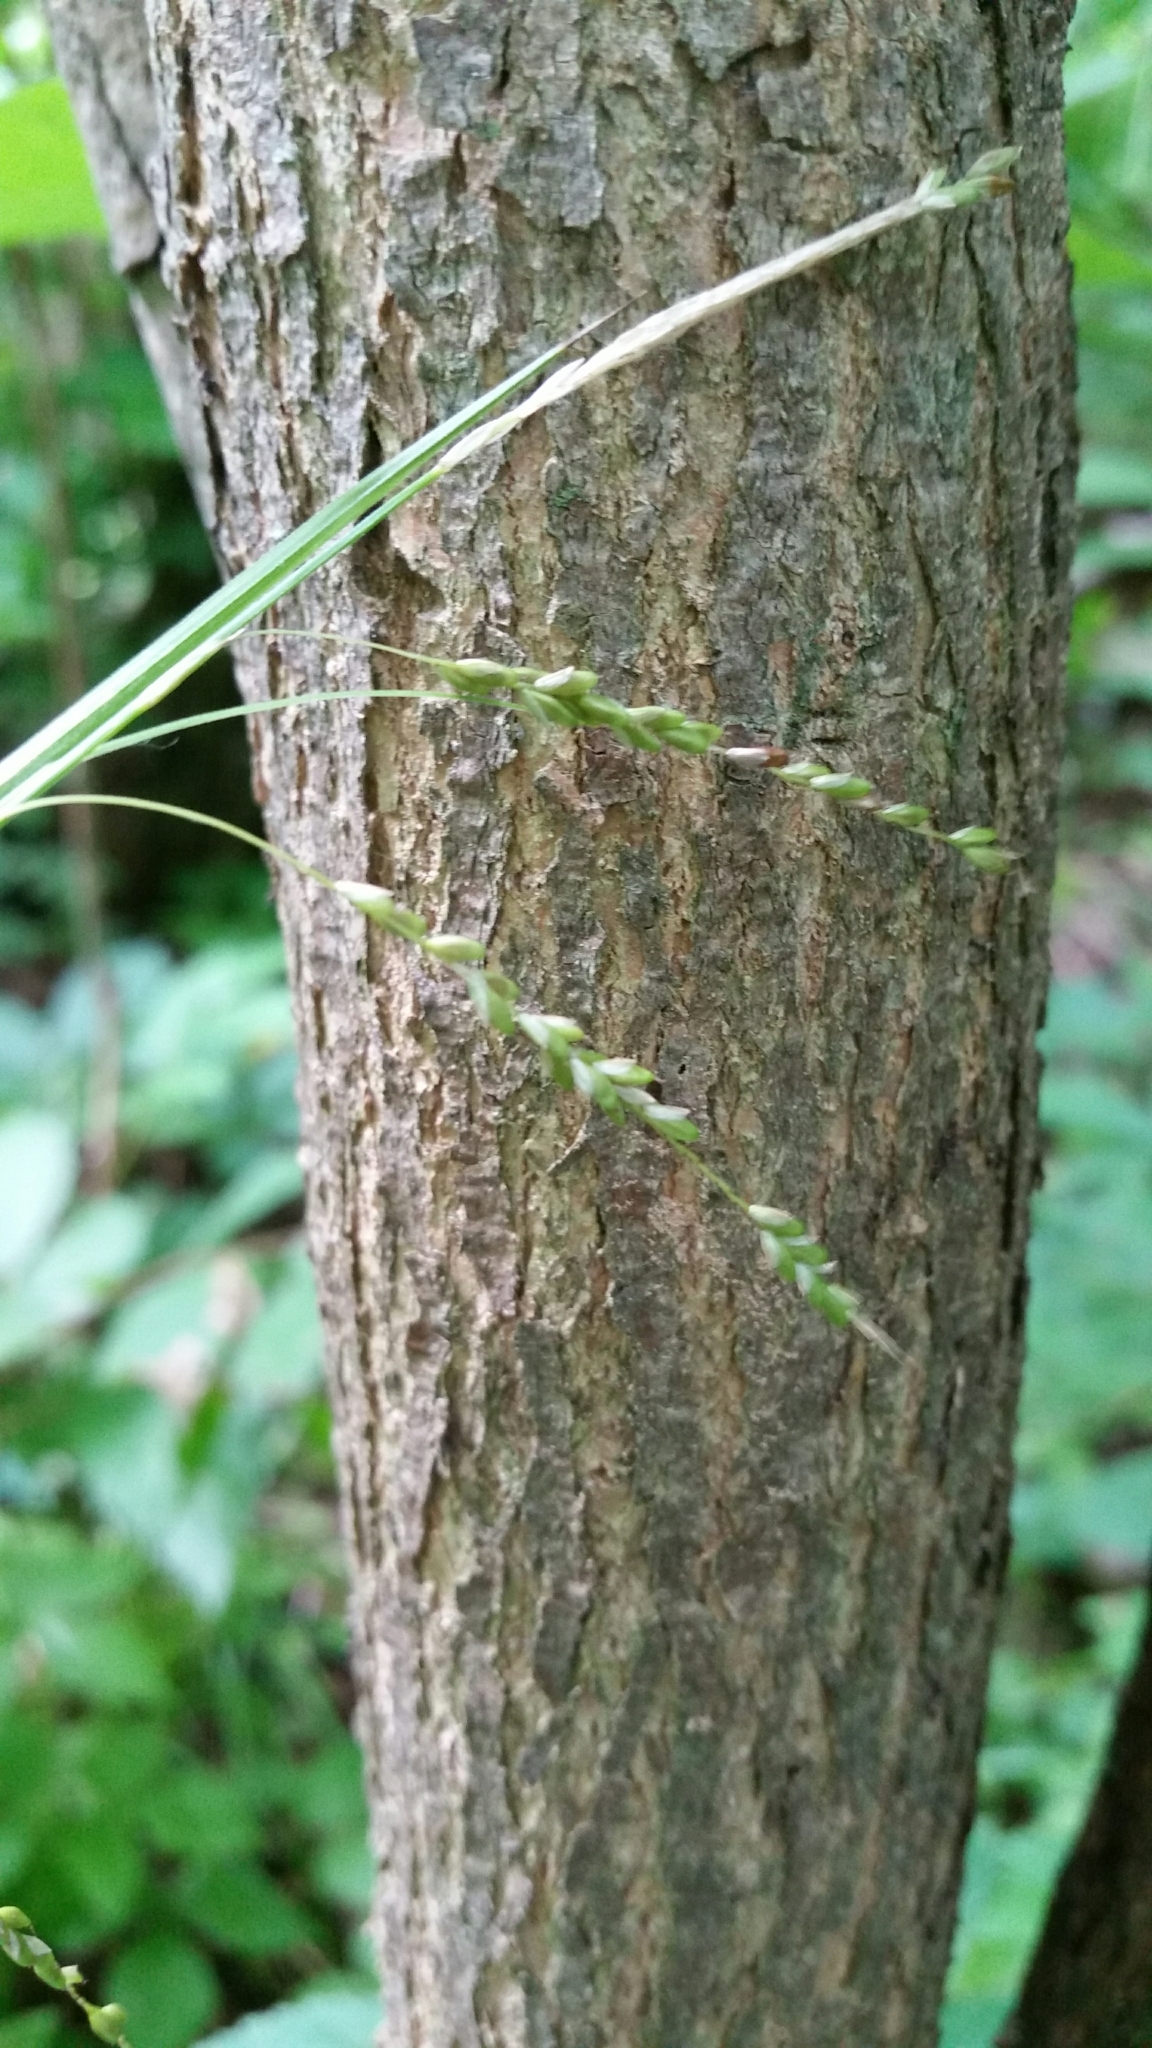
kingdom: Plantae
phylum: Tracheophyta
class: Liliopsida
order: Poales
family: Cyperaceae
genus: Carex
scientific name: Carex gracillima
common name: Graceful sedge
